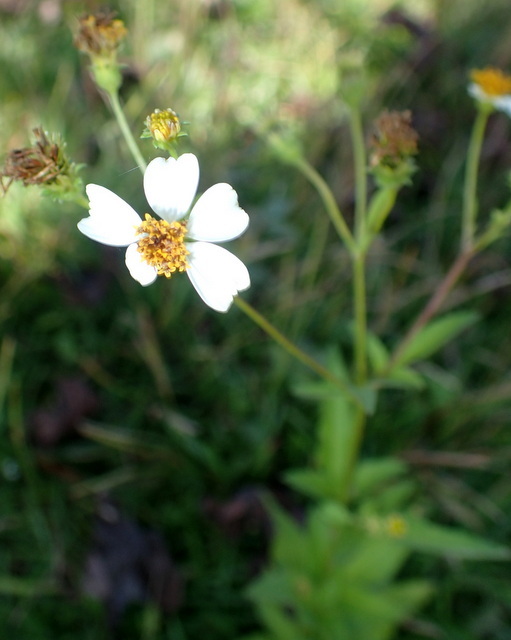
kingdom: Plantae
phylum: Tracheophyta
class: Magnoliopsida
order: Asterales
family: Asteraceae
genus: Bidens
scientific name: Bidens alba
